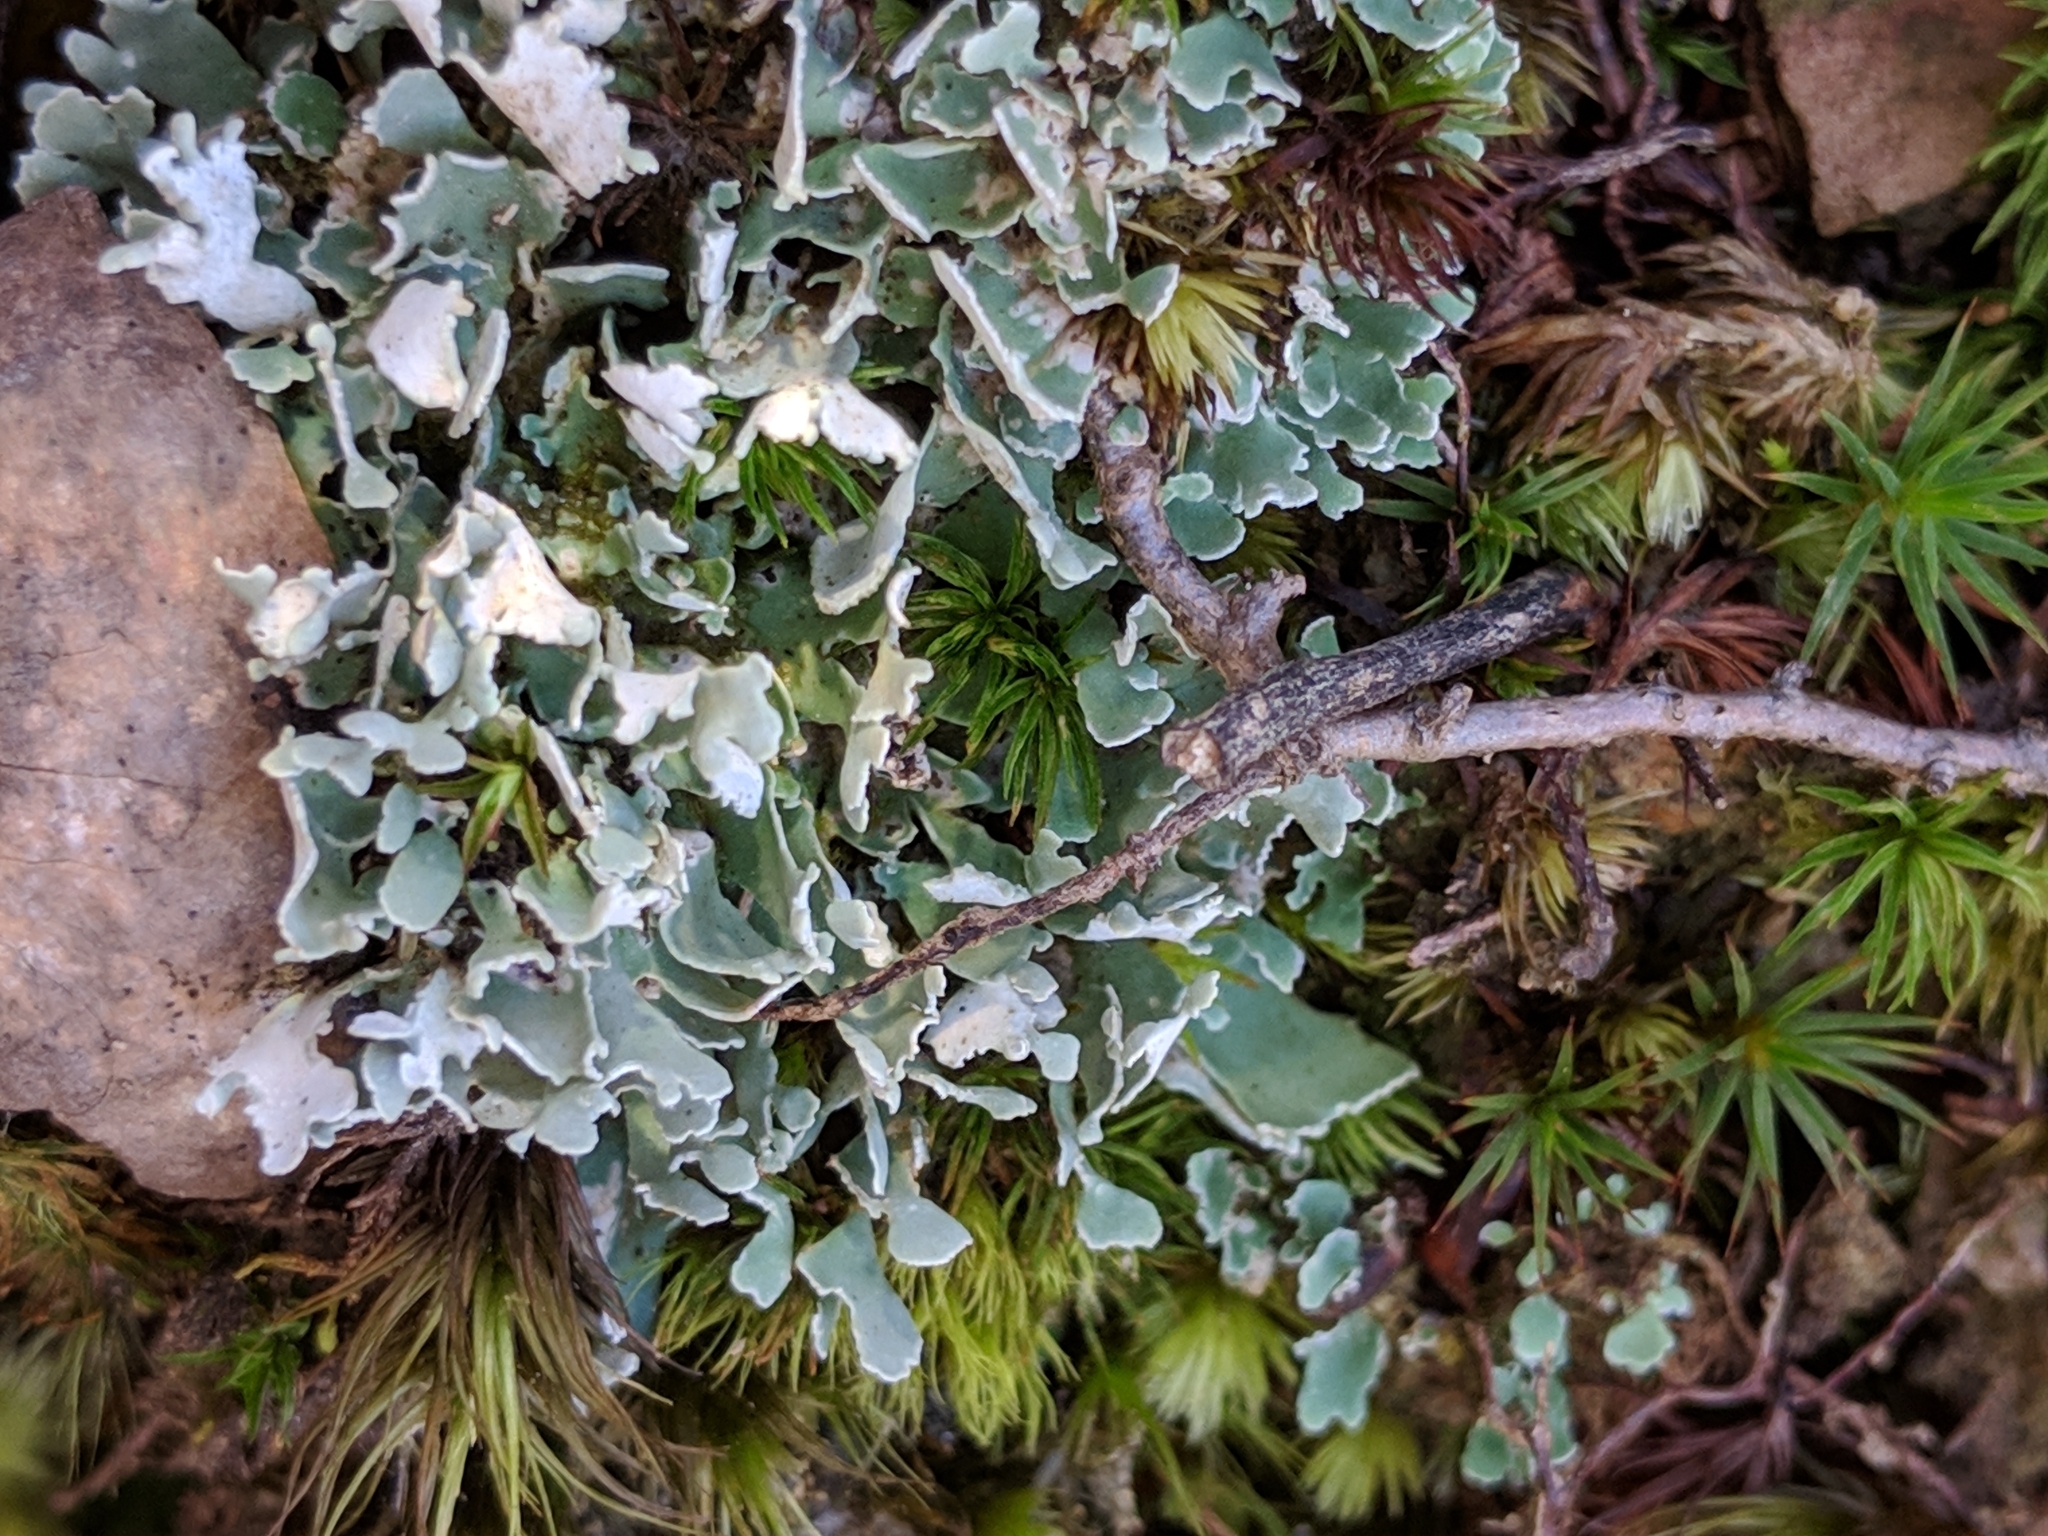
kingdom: Fungi
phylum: Ascomycota
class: Lecanoromycetes
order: Lecanorales
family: Cladoniaceae
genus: Cladonia
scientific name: Cladonia apodocarpa
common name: Stalkless cladonia
